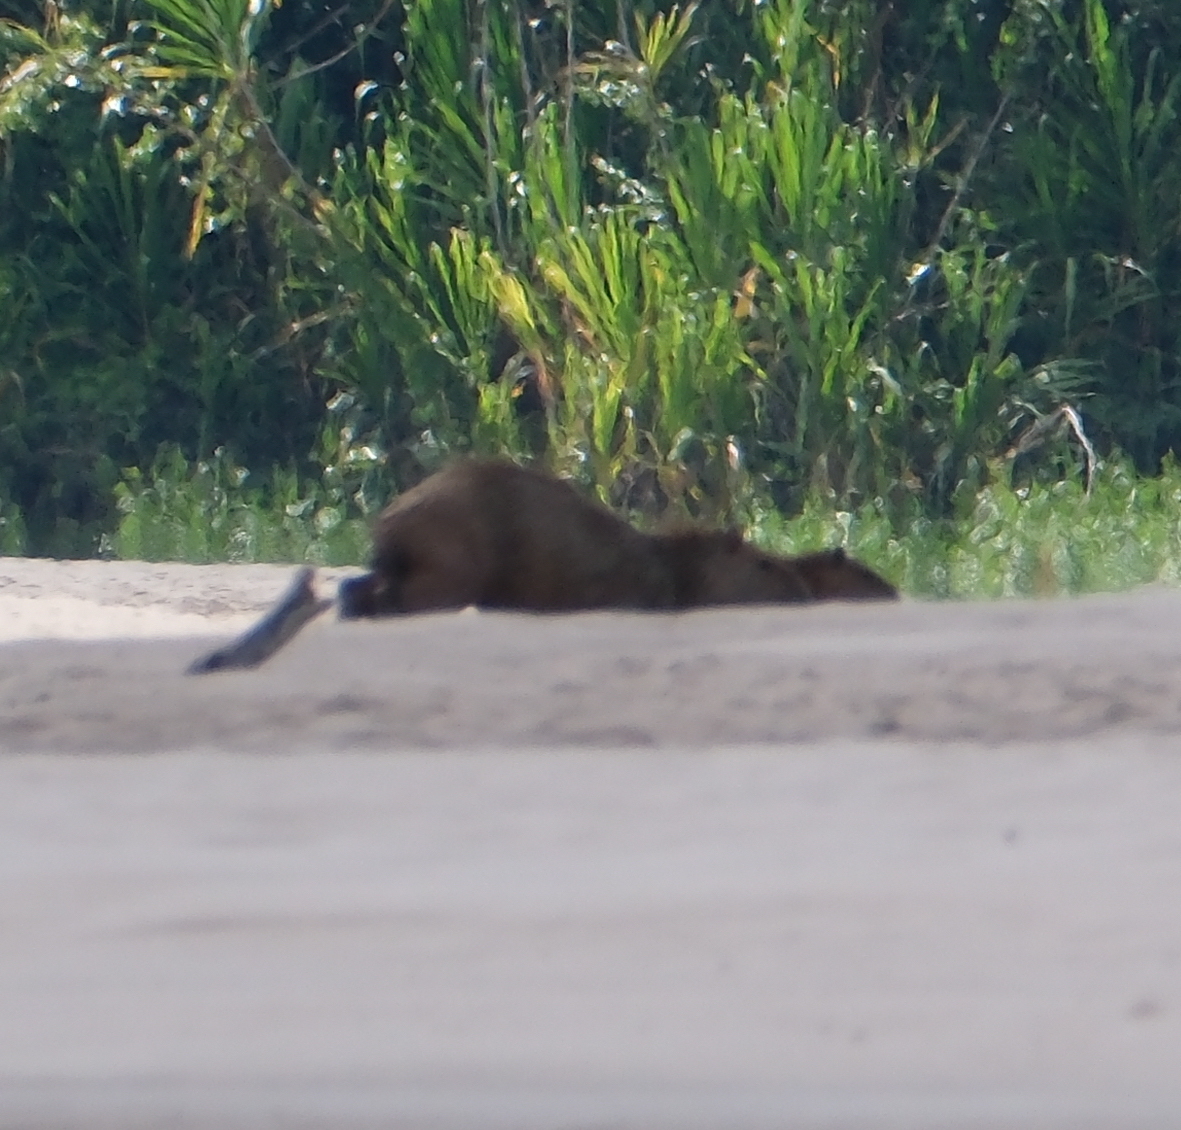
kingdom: Animalia
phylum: Chordata
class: Mammalia
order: Rodentia
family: Caviidae
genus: Hydrochoerus
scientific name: Hydrochoerus hydrochaeris
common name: Capybara
